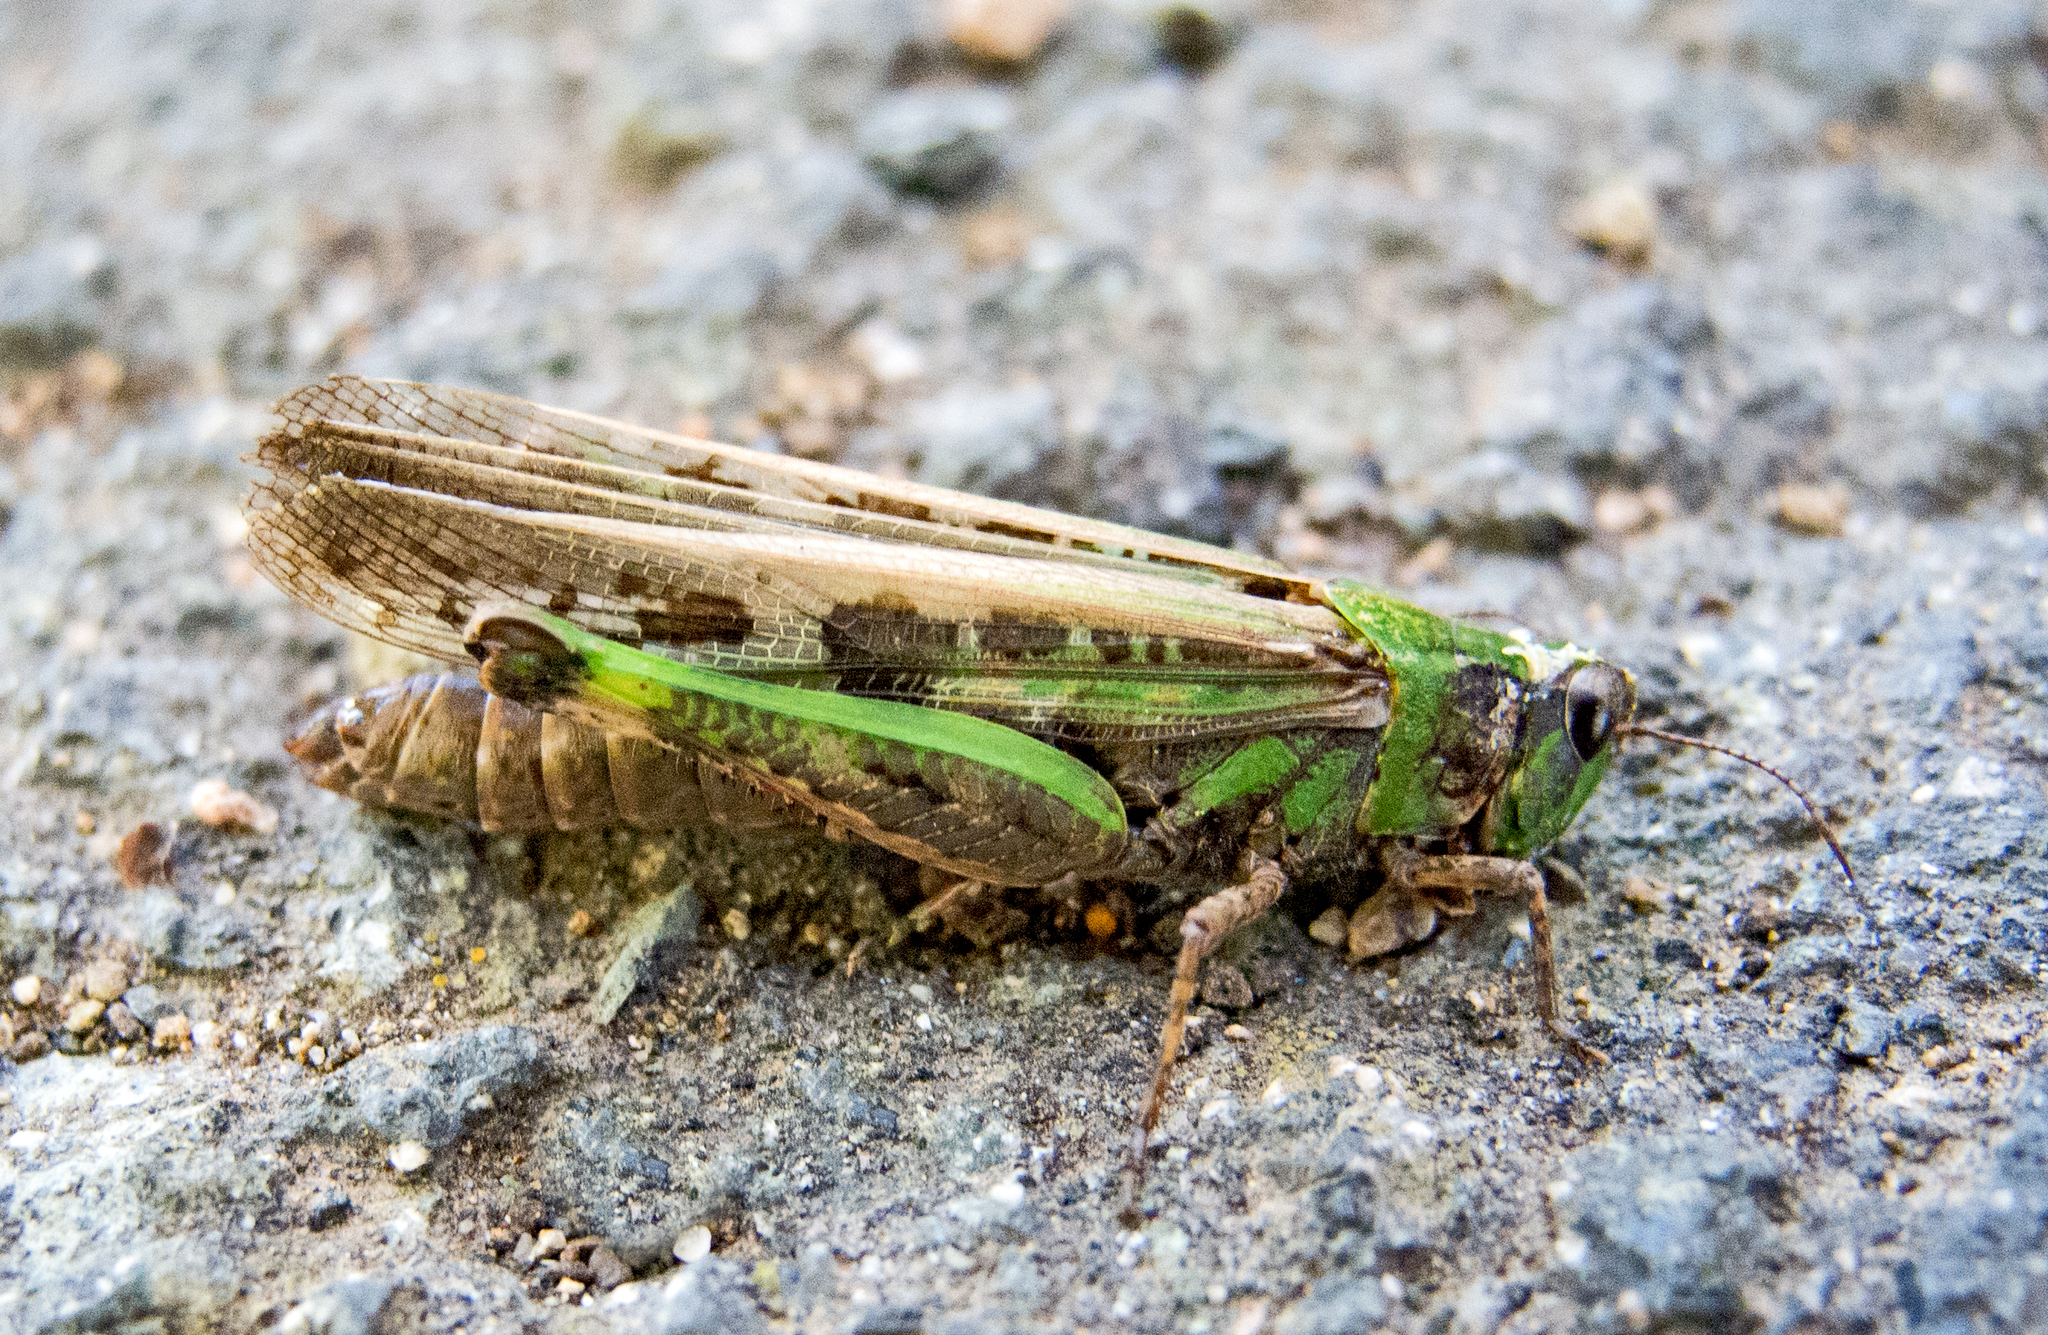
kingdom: Animalia
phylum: Arthropoda
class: Insecta
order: Orthoptera
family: Acrididae
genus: Aiolopus
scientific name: Aiolopus thalassinus
